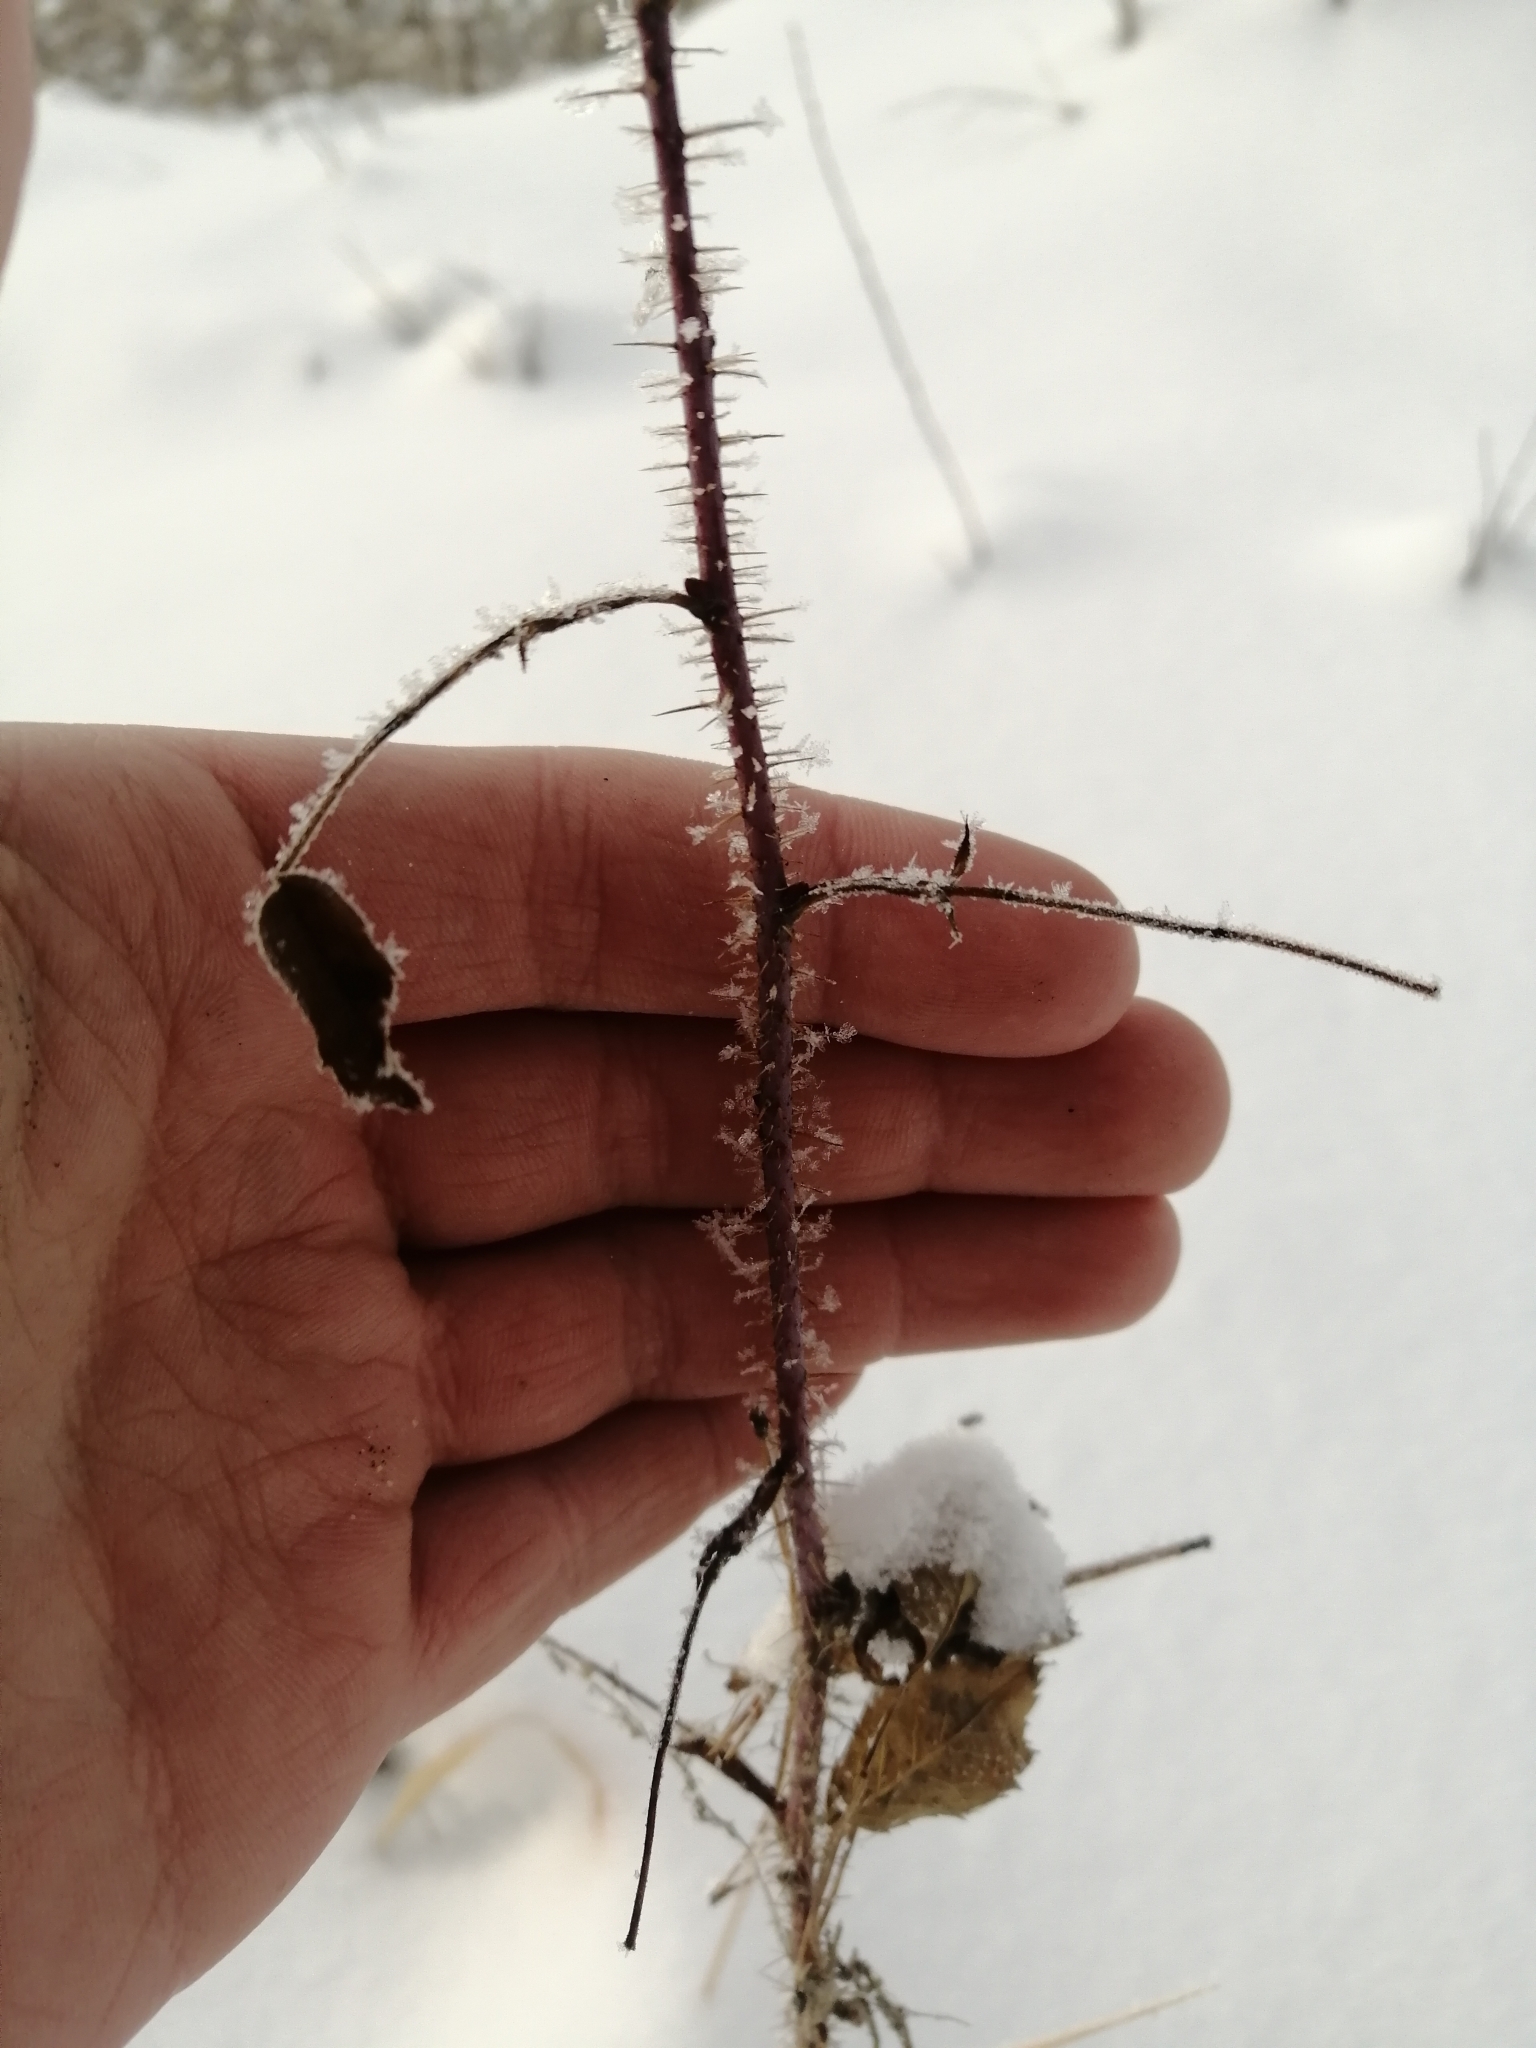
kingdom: Plantae
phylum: Tracheophyta
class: Magnoliopsida
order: Rosales
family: Rosaceae
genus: Rosa
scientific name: Rosa acicularis
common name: Prickly rose
